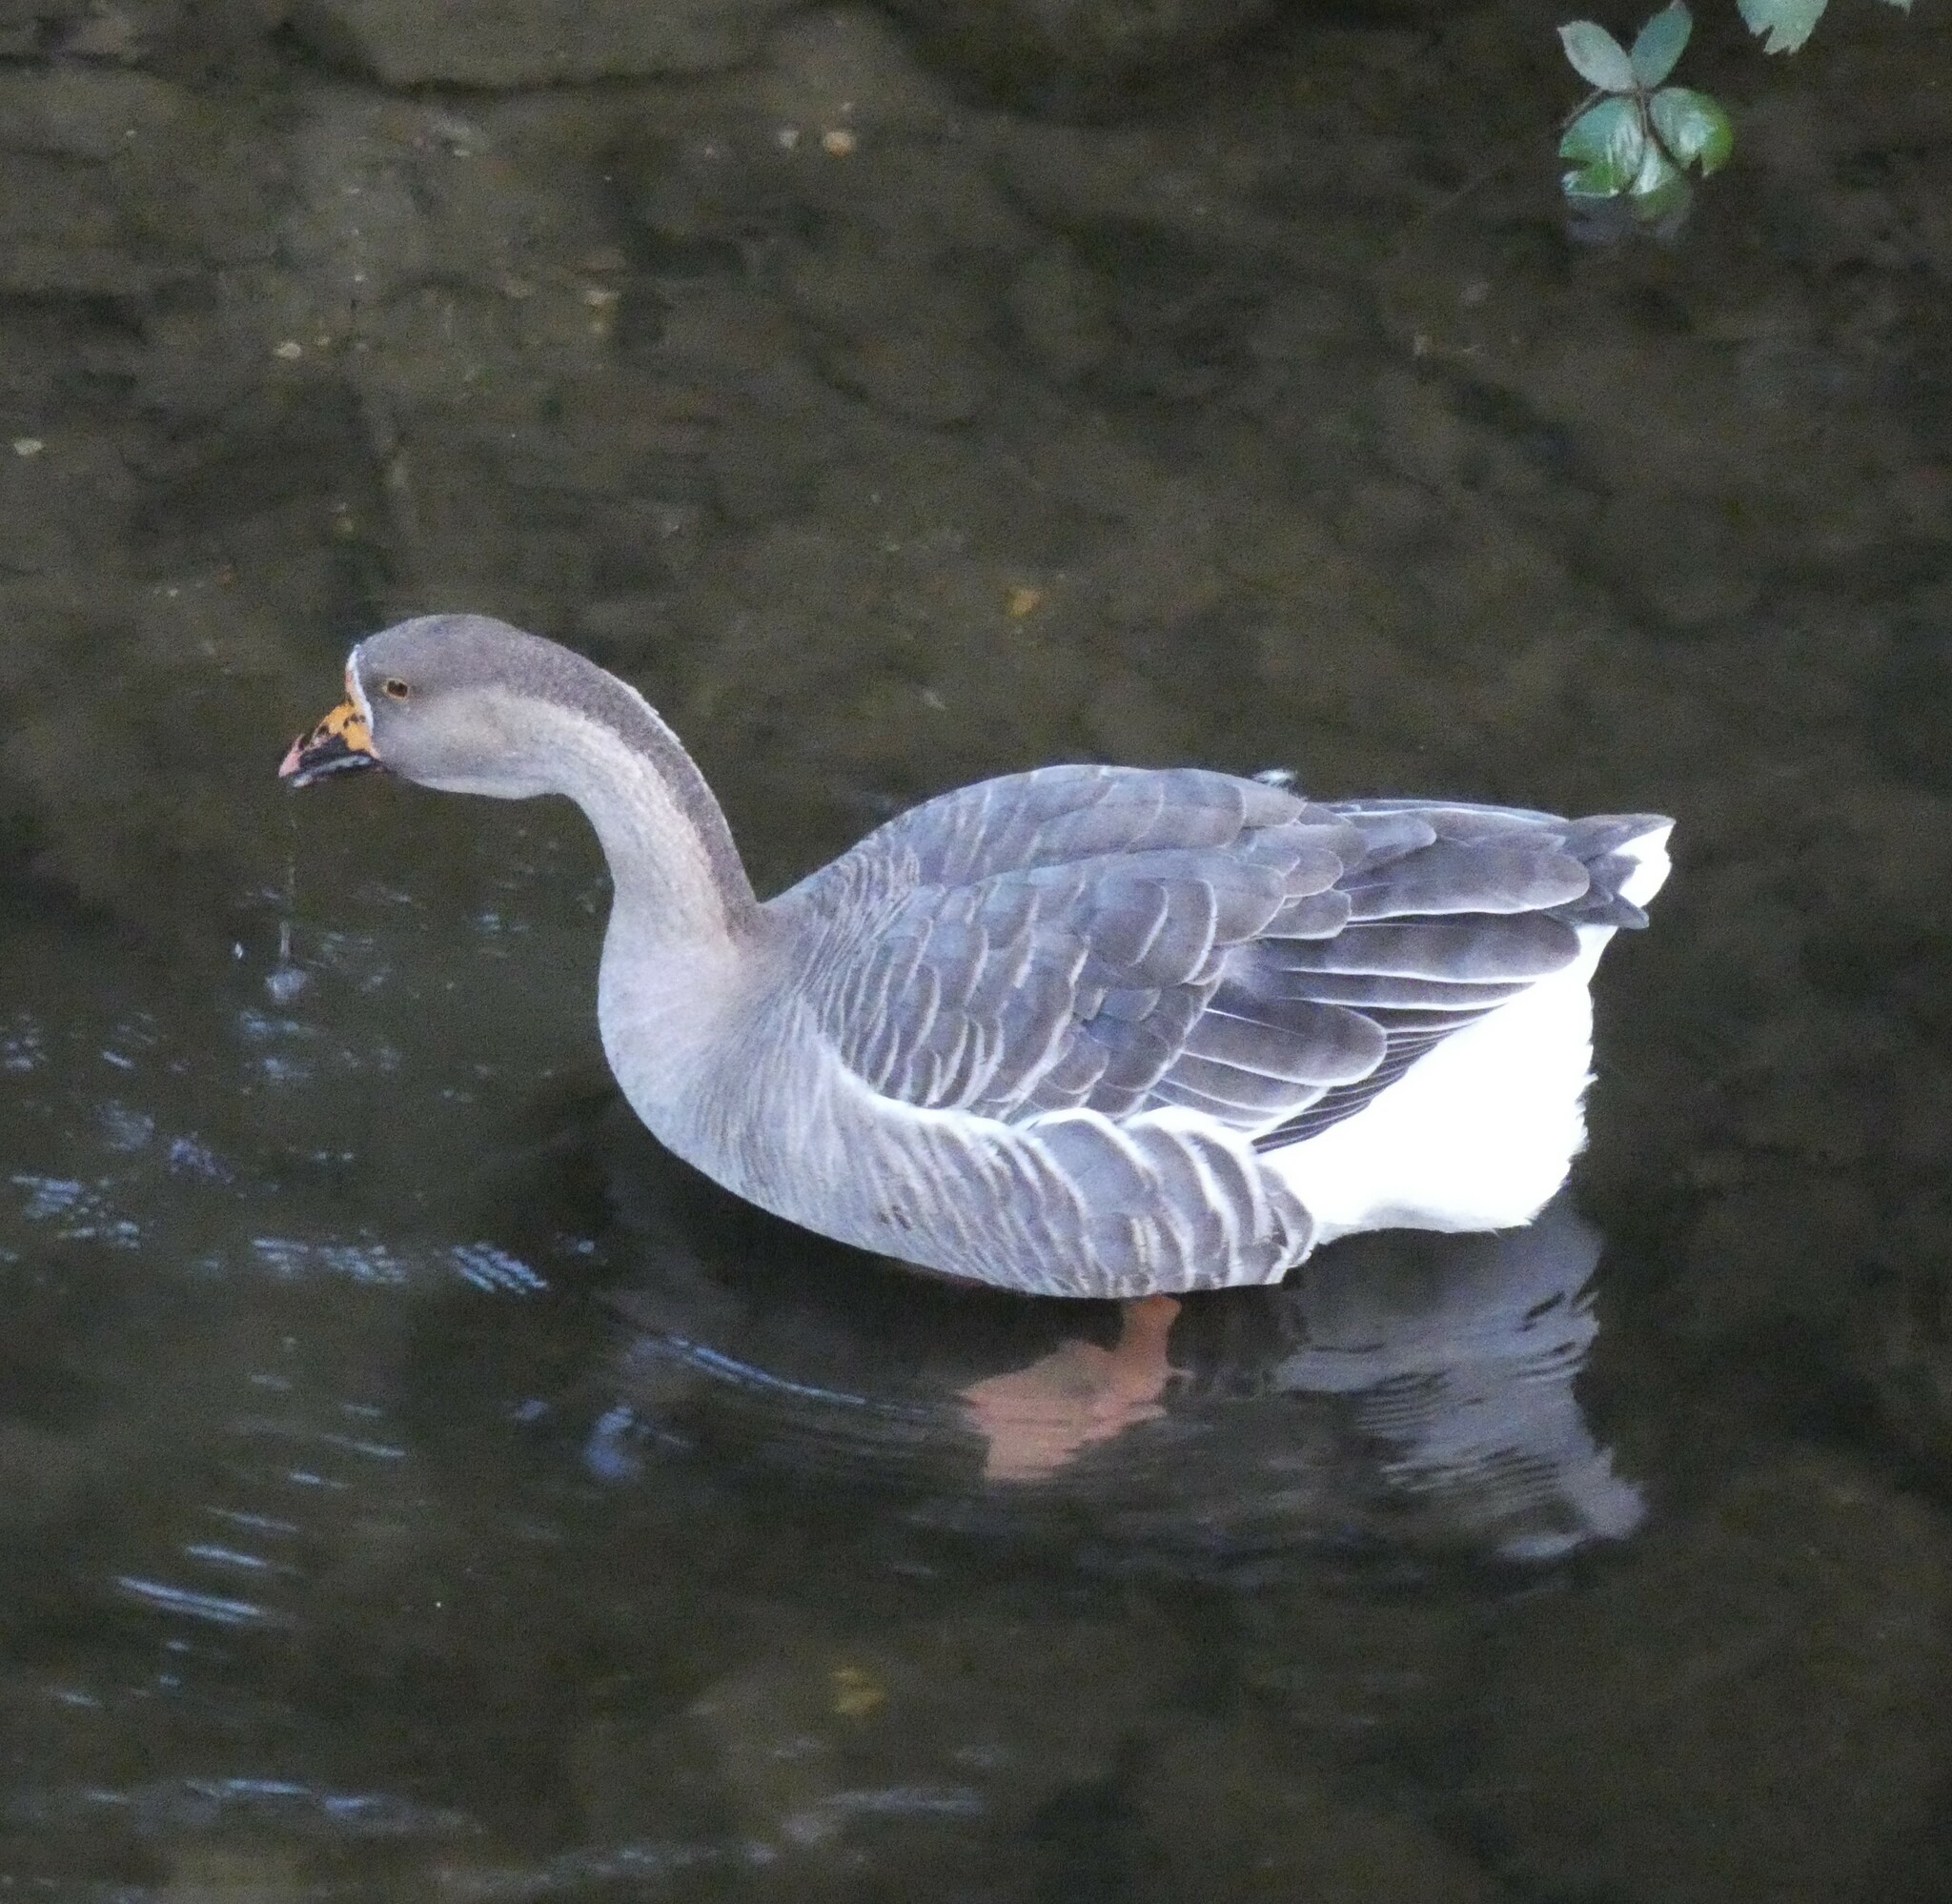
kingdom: Animalia
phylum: Chordata
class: Aves
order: Anseriformes
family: Anatidae
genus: Anser
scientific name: Anser
